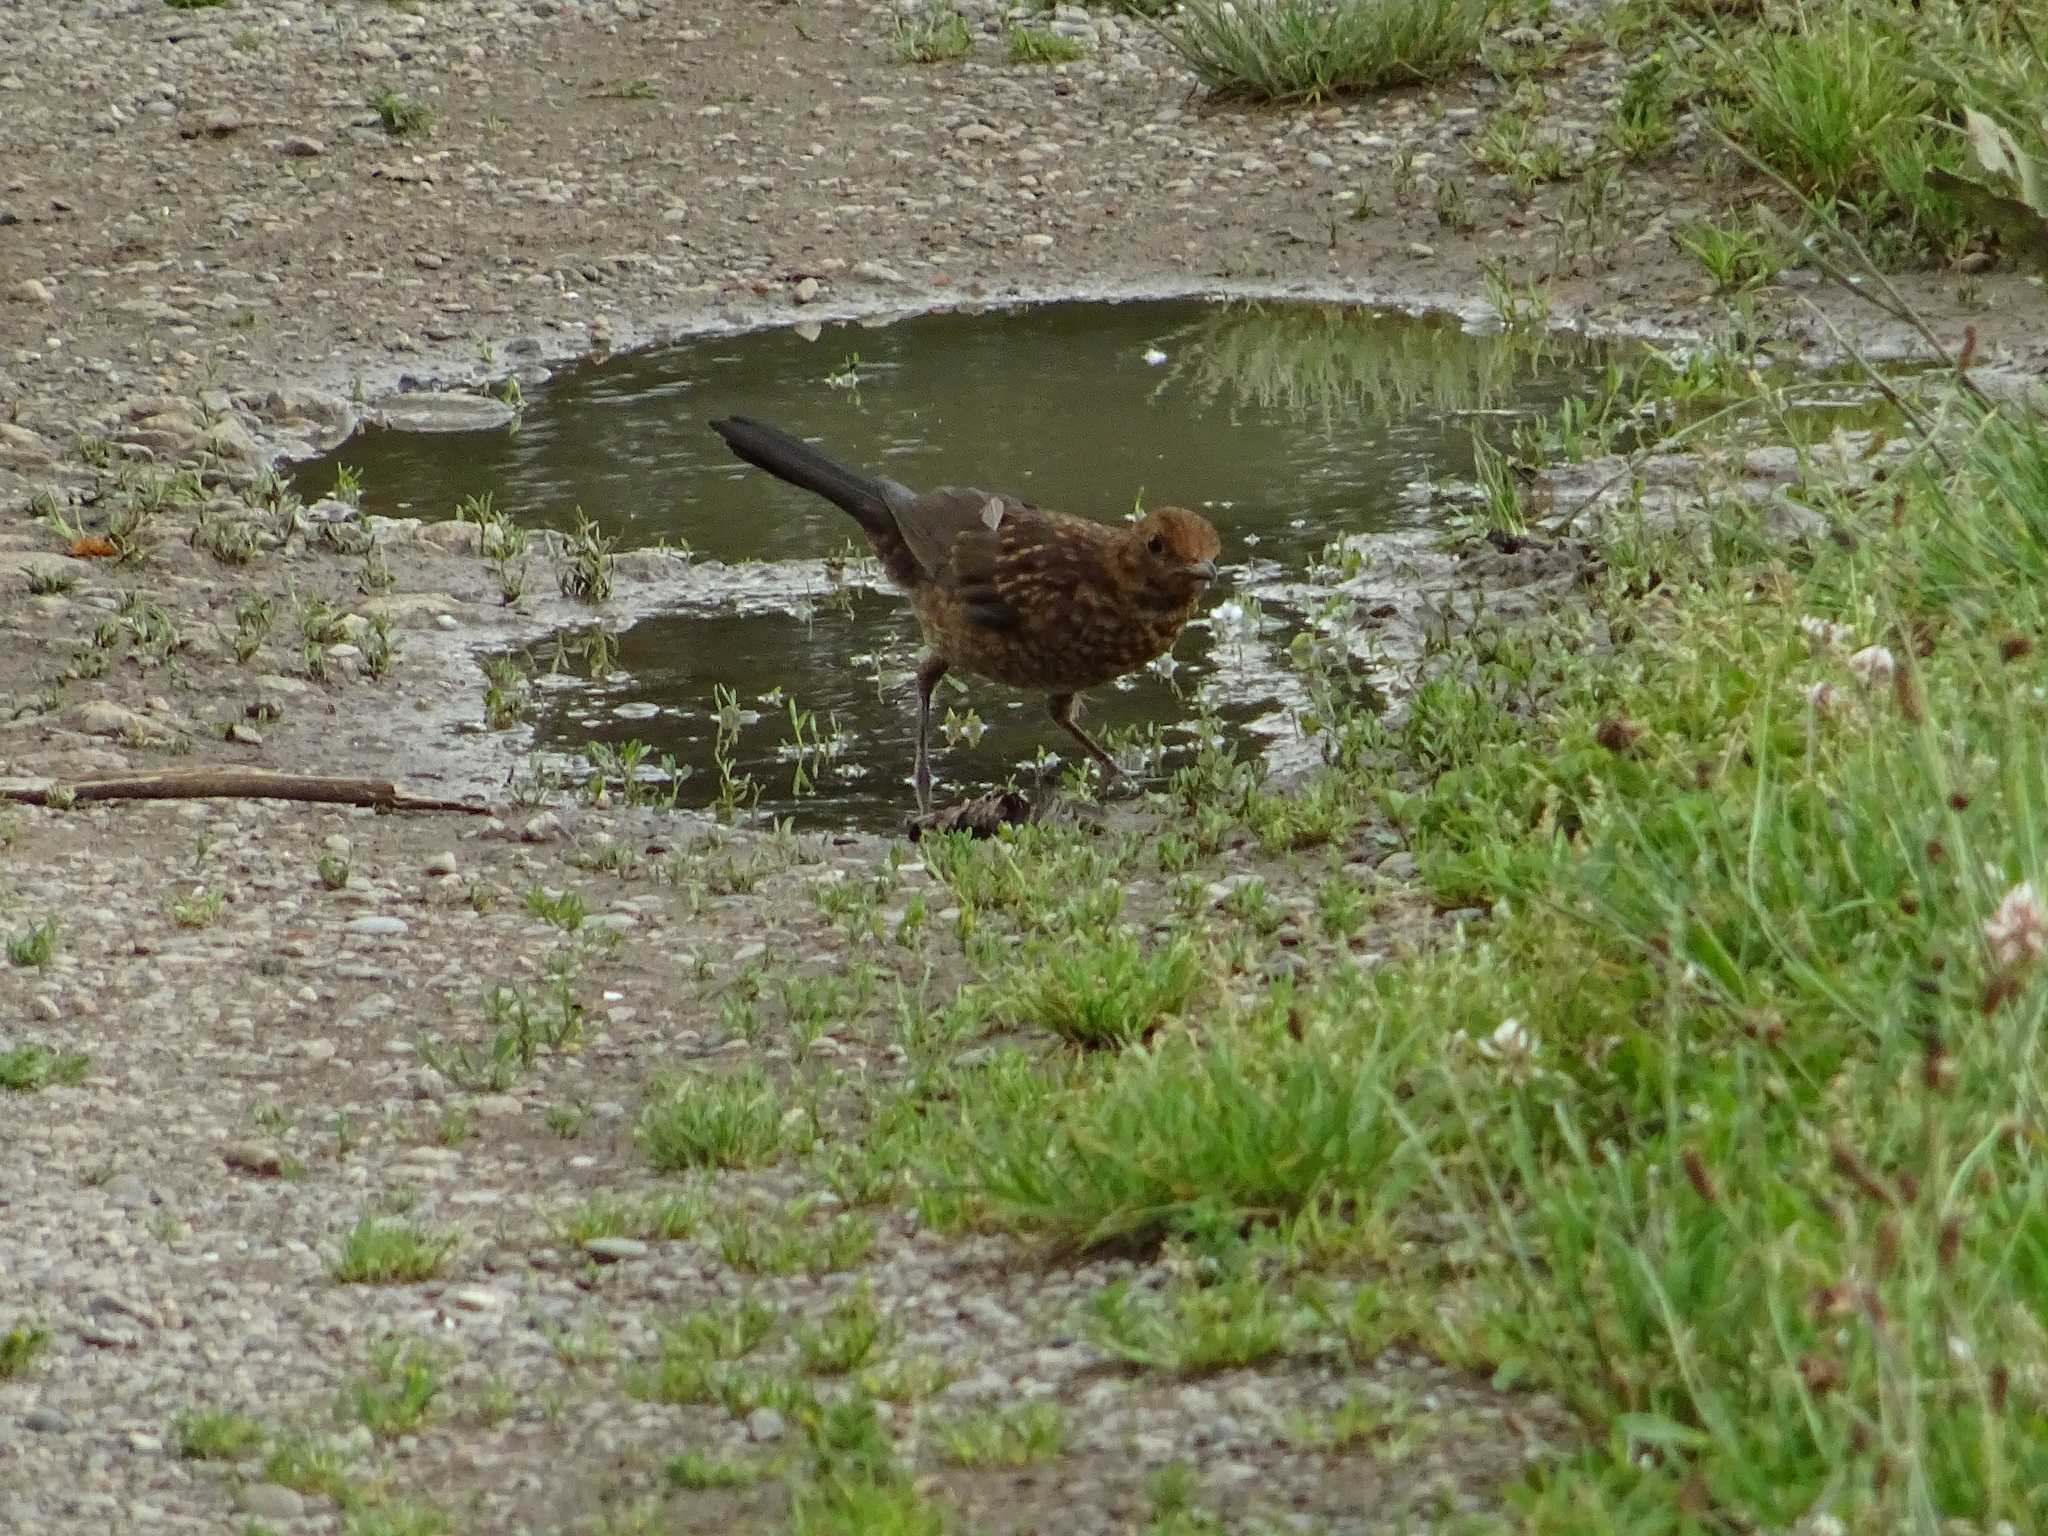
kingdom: Animalia
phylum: Chordata
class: Aves
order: Passeriformes
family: Turdidae
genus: Turdus
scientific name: Turdus merula
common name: Common blackbird
